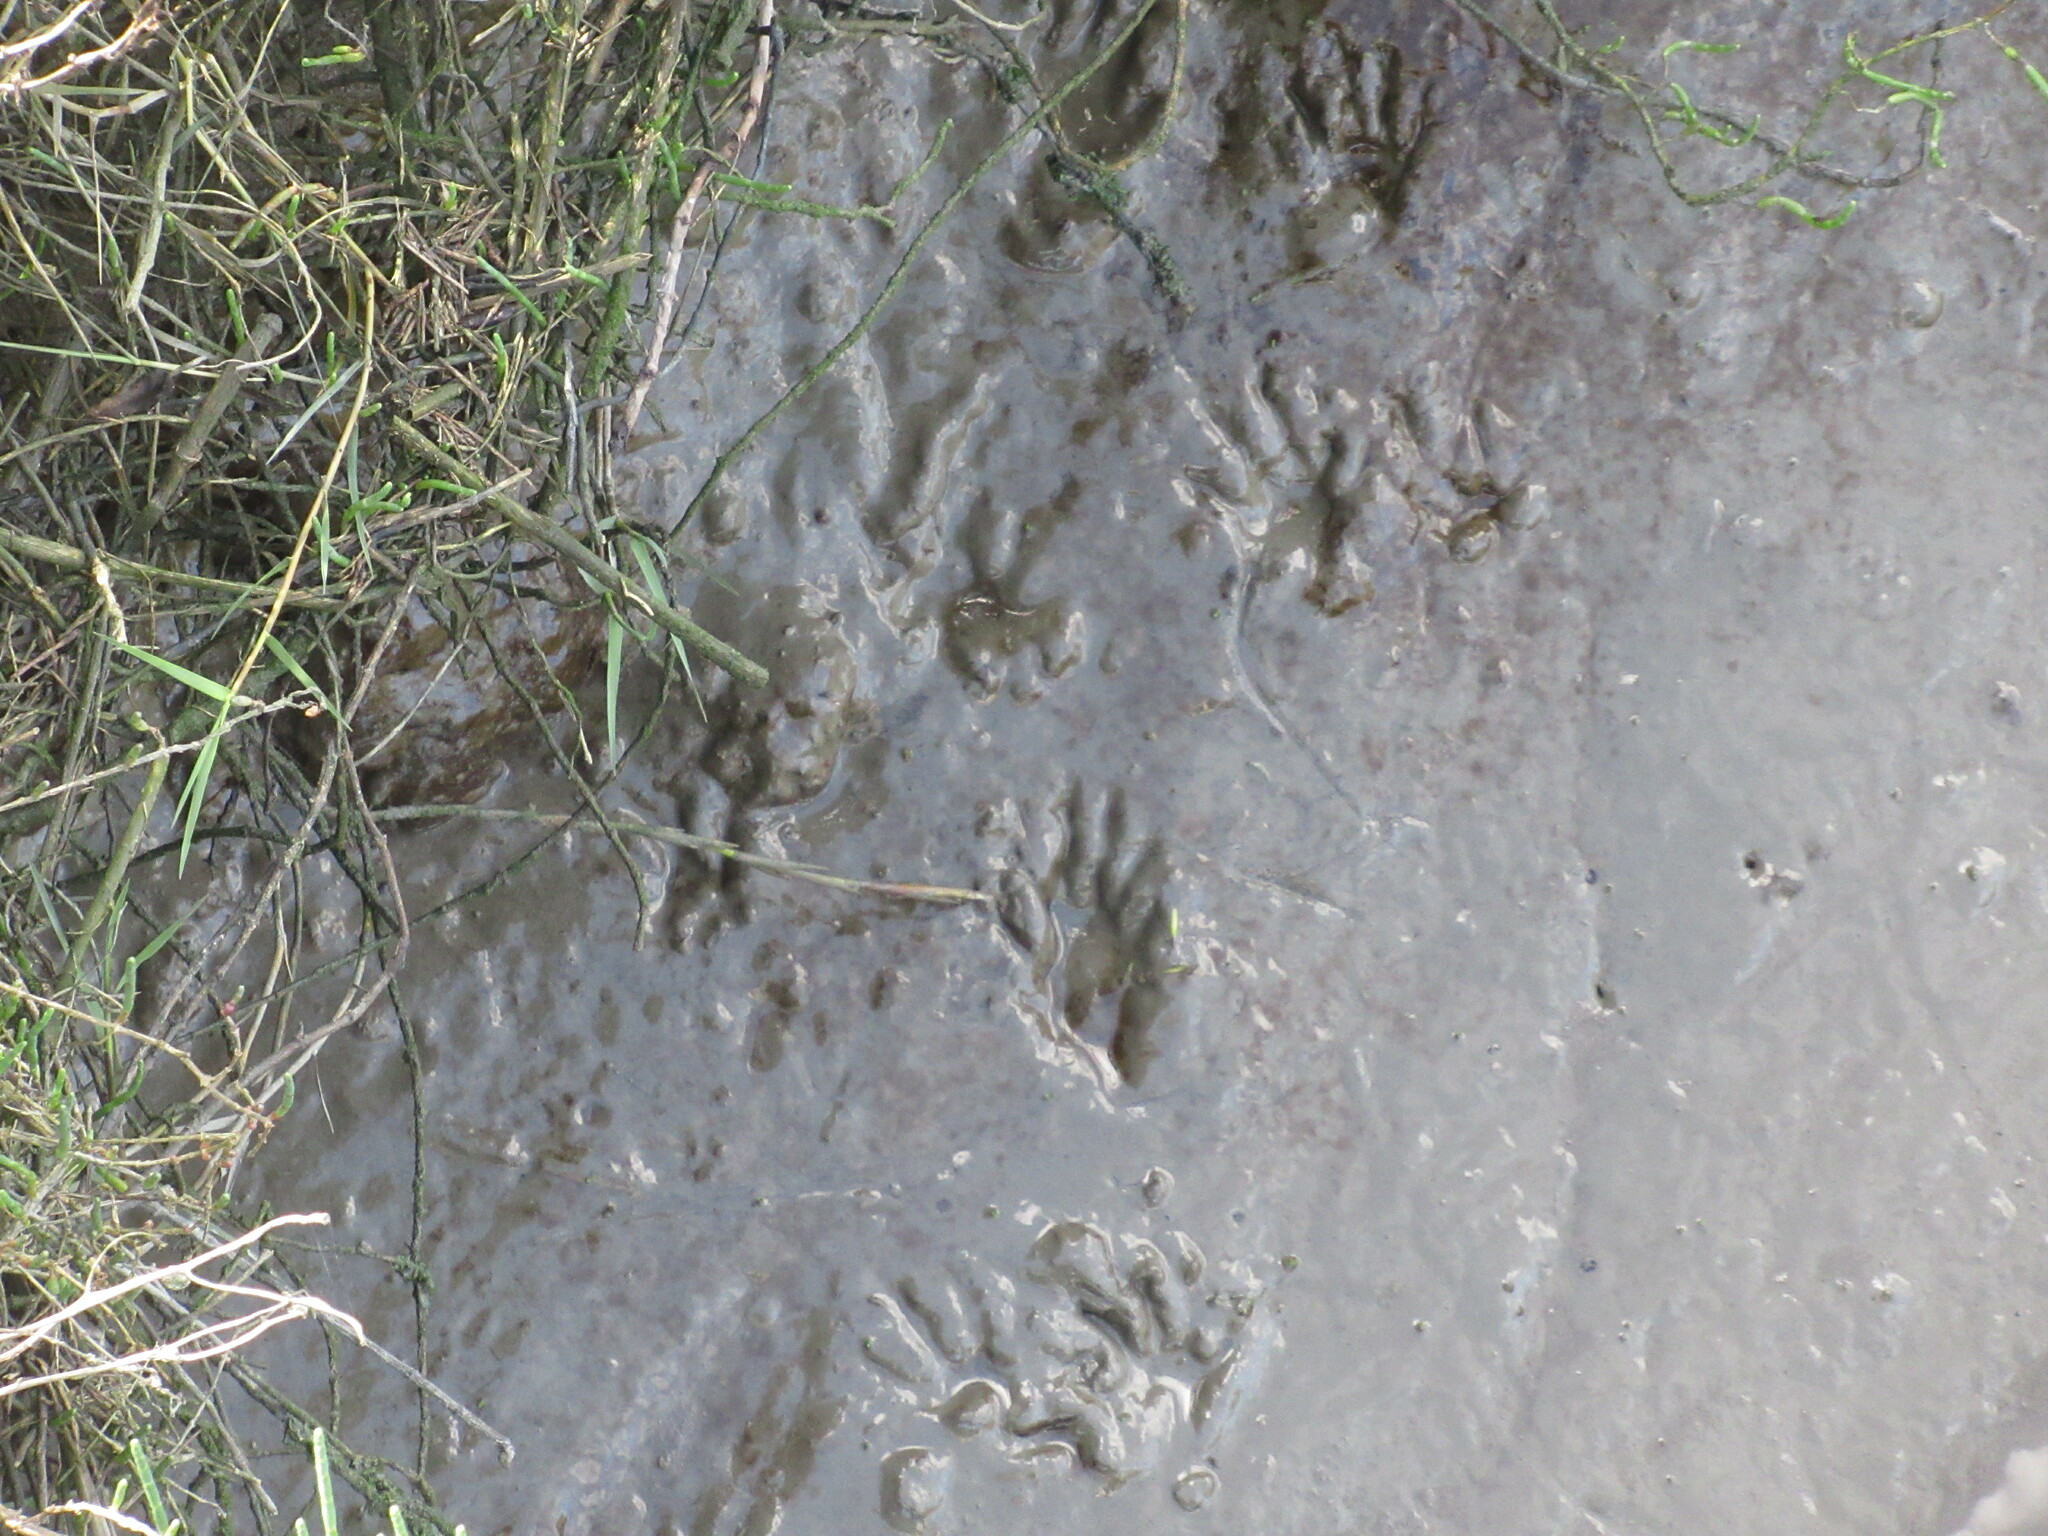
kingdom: Animalia
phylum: Chordata
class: Mammalia
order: Carnivora
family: Procyonidae
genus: Procyon
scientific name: Procyon lotor
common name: Raccoon
